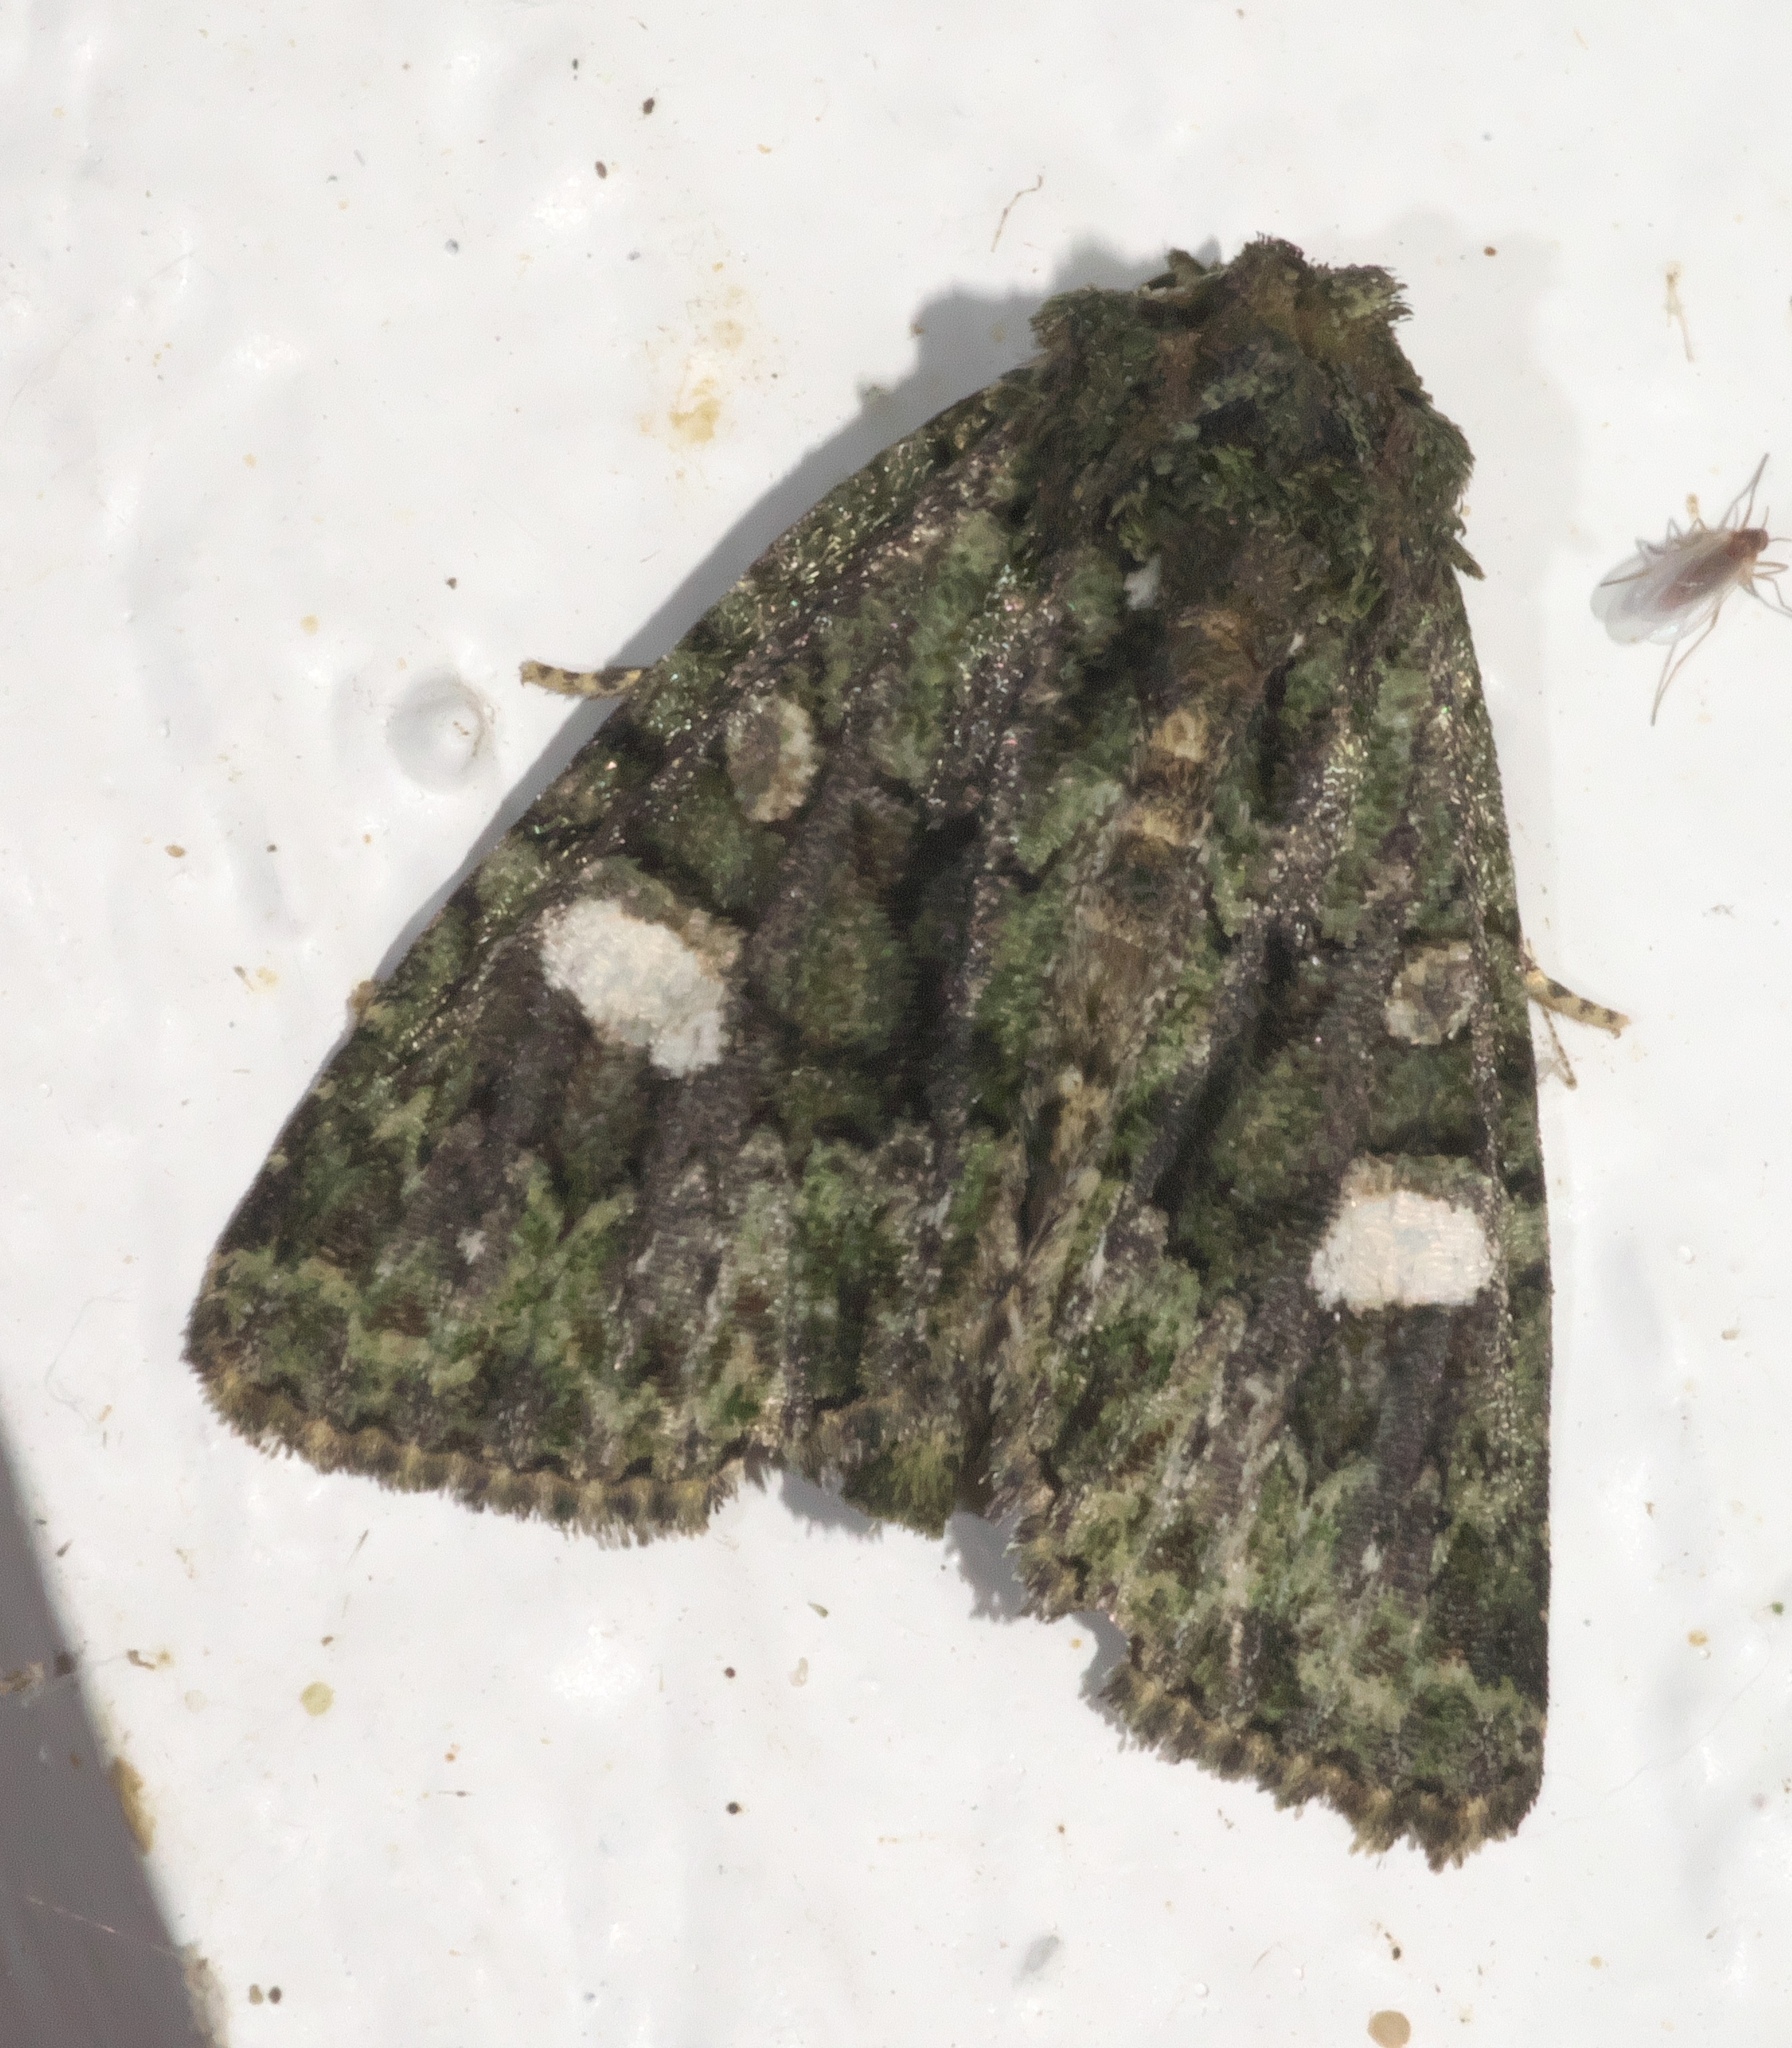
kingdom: Animalia
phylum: Arthropoda
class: Insecta
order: Lepidoptera
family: Noctuidae
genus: Phosphila
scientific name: Phosphila miselioides
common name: Spotted phosphila moth
